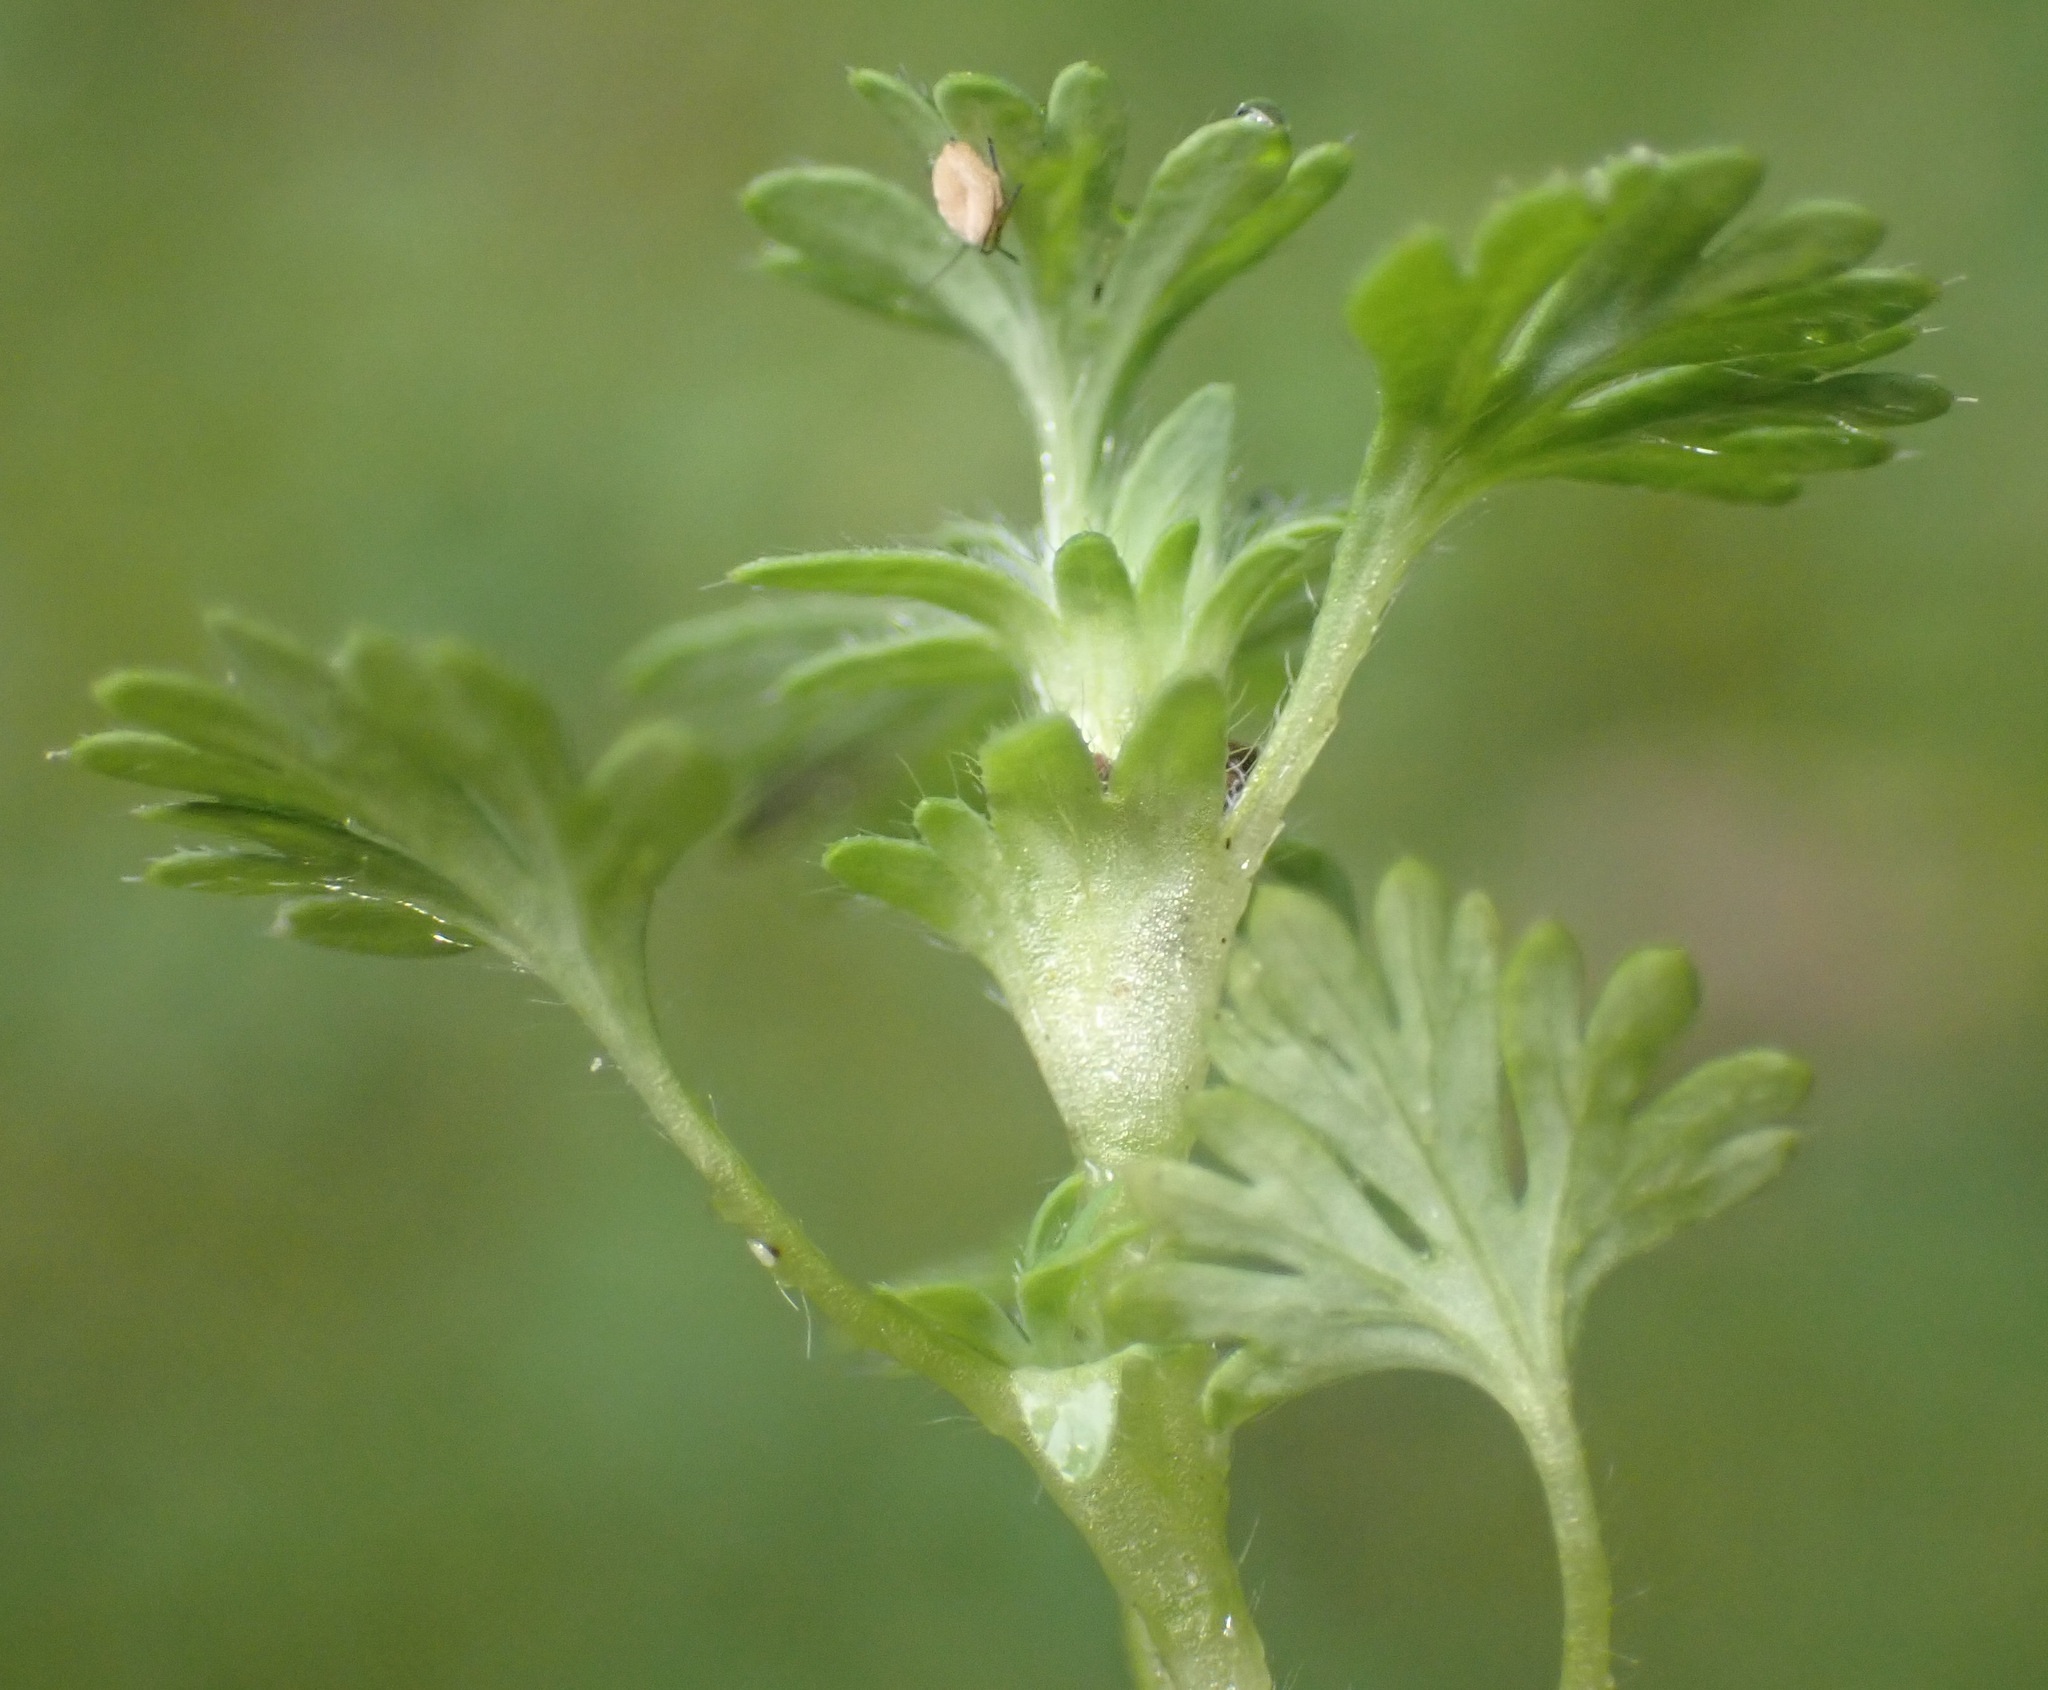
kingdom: Plantae
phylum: Tracheophyta
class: Magnoliopsida
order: Rosales
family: Rosaceae
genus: Aphanes
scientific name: Aphanes australis
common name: Slender parsley-piert
